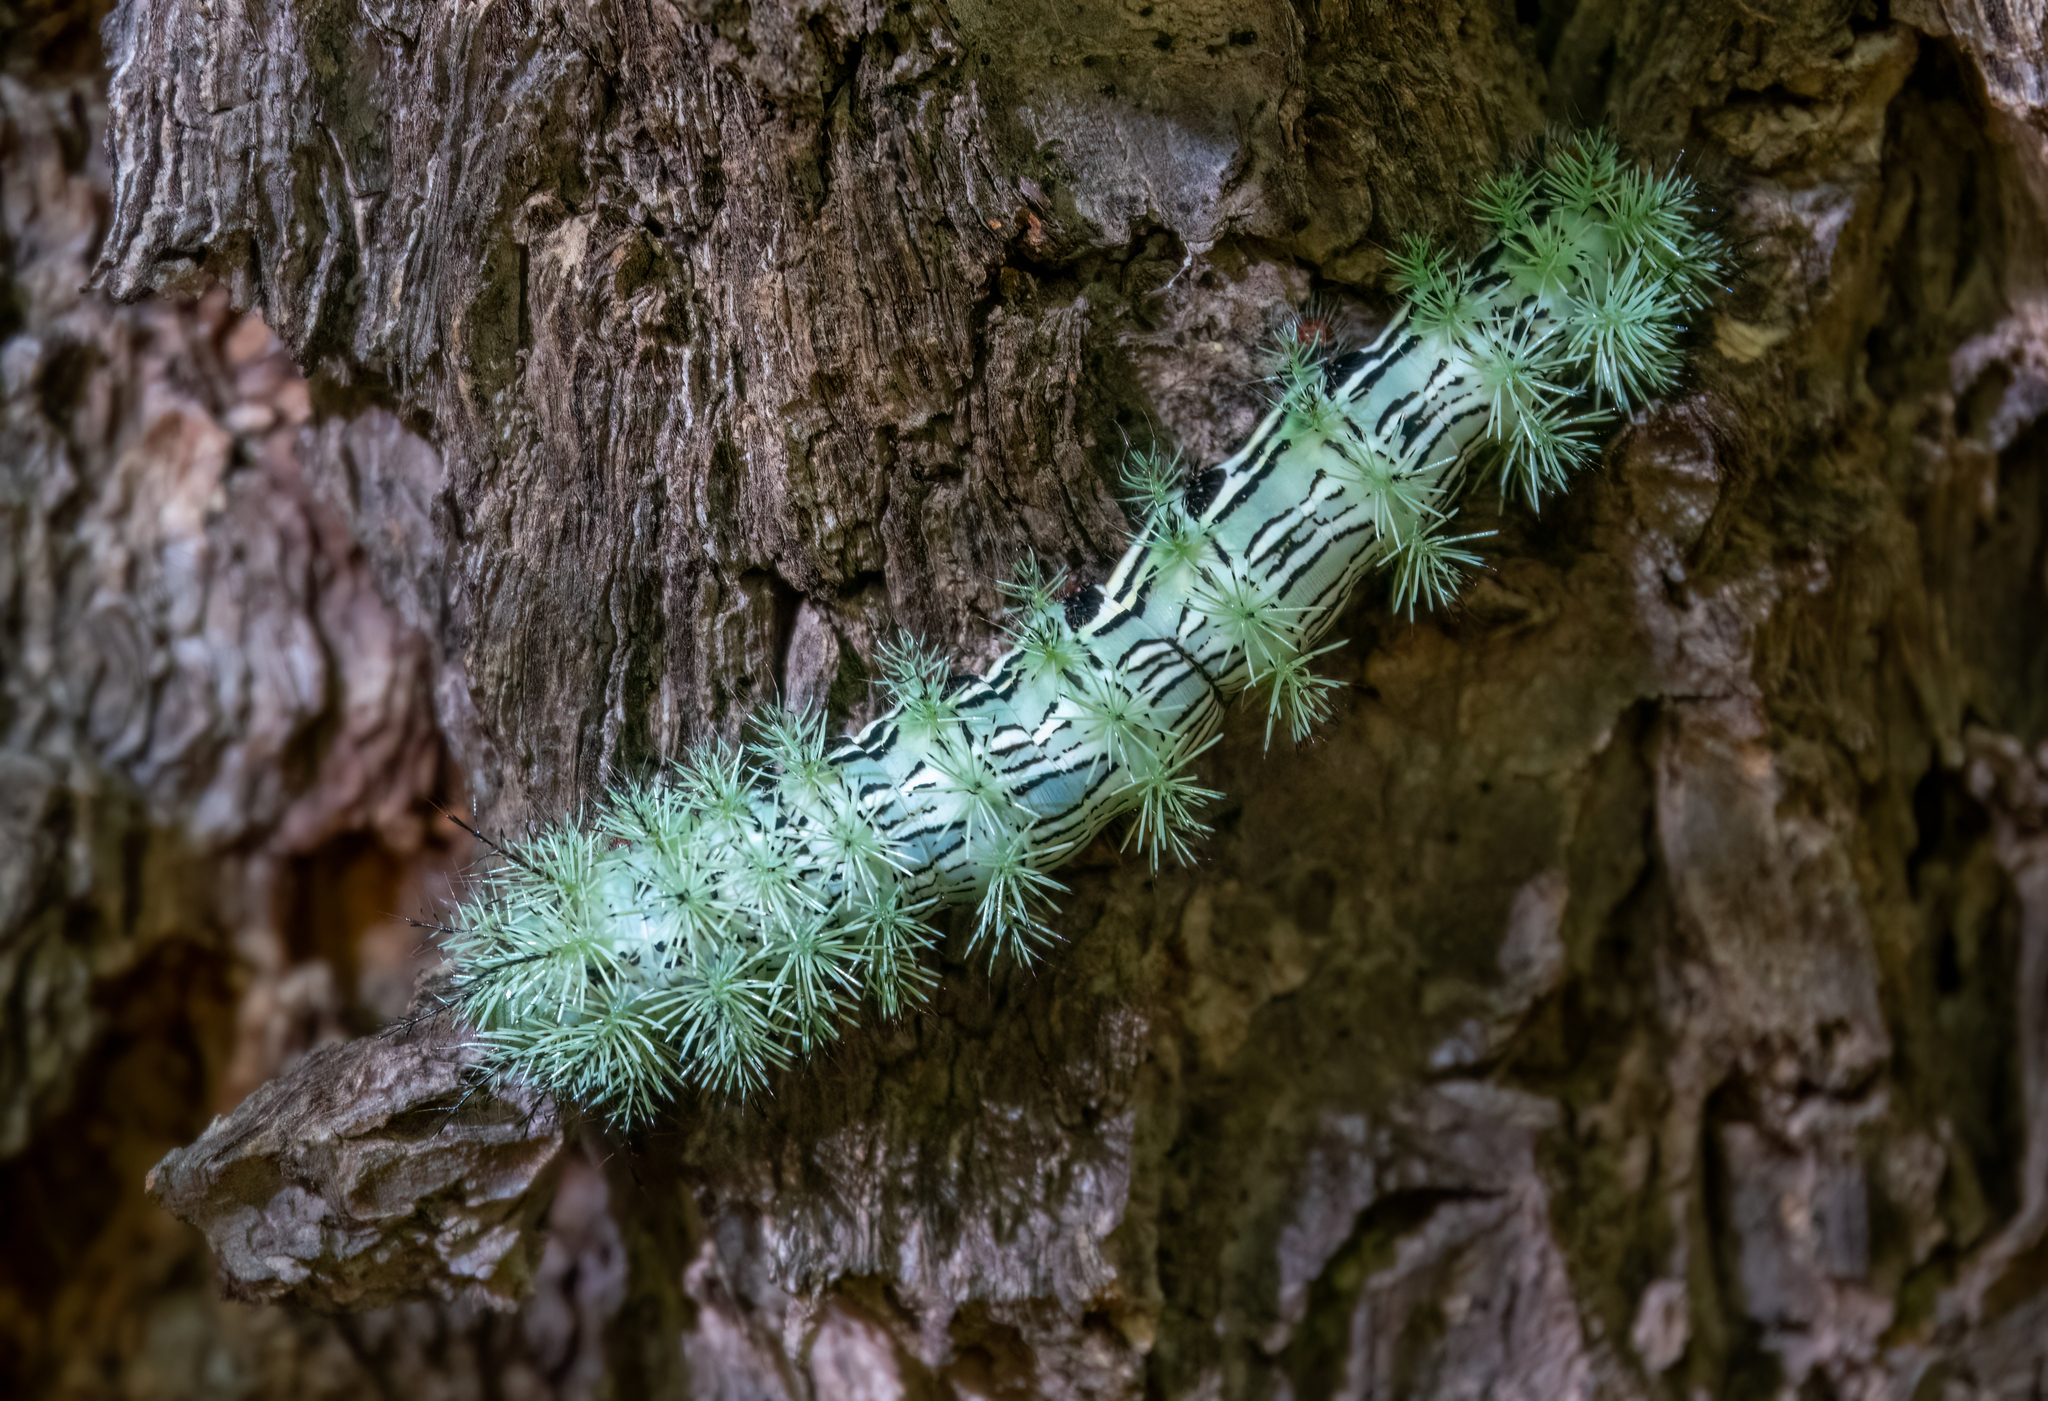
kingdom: Animalia
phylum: Arthropoda
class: Insecta
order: Lepidoptera
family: Saturniidae
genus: Automeris
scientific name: Automeris cecrops
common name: Cecrops eyed silkmoth
